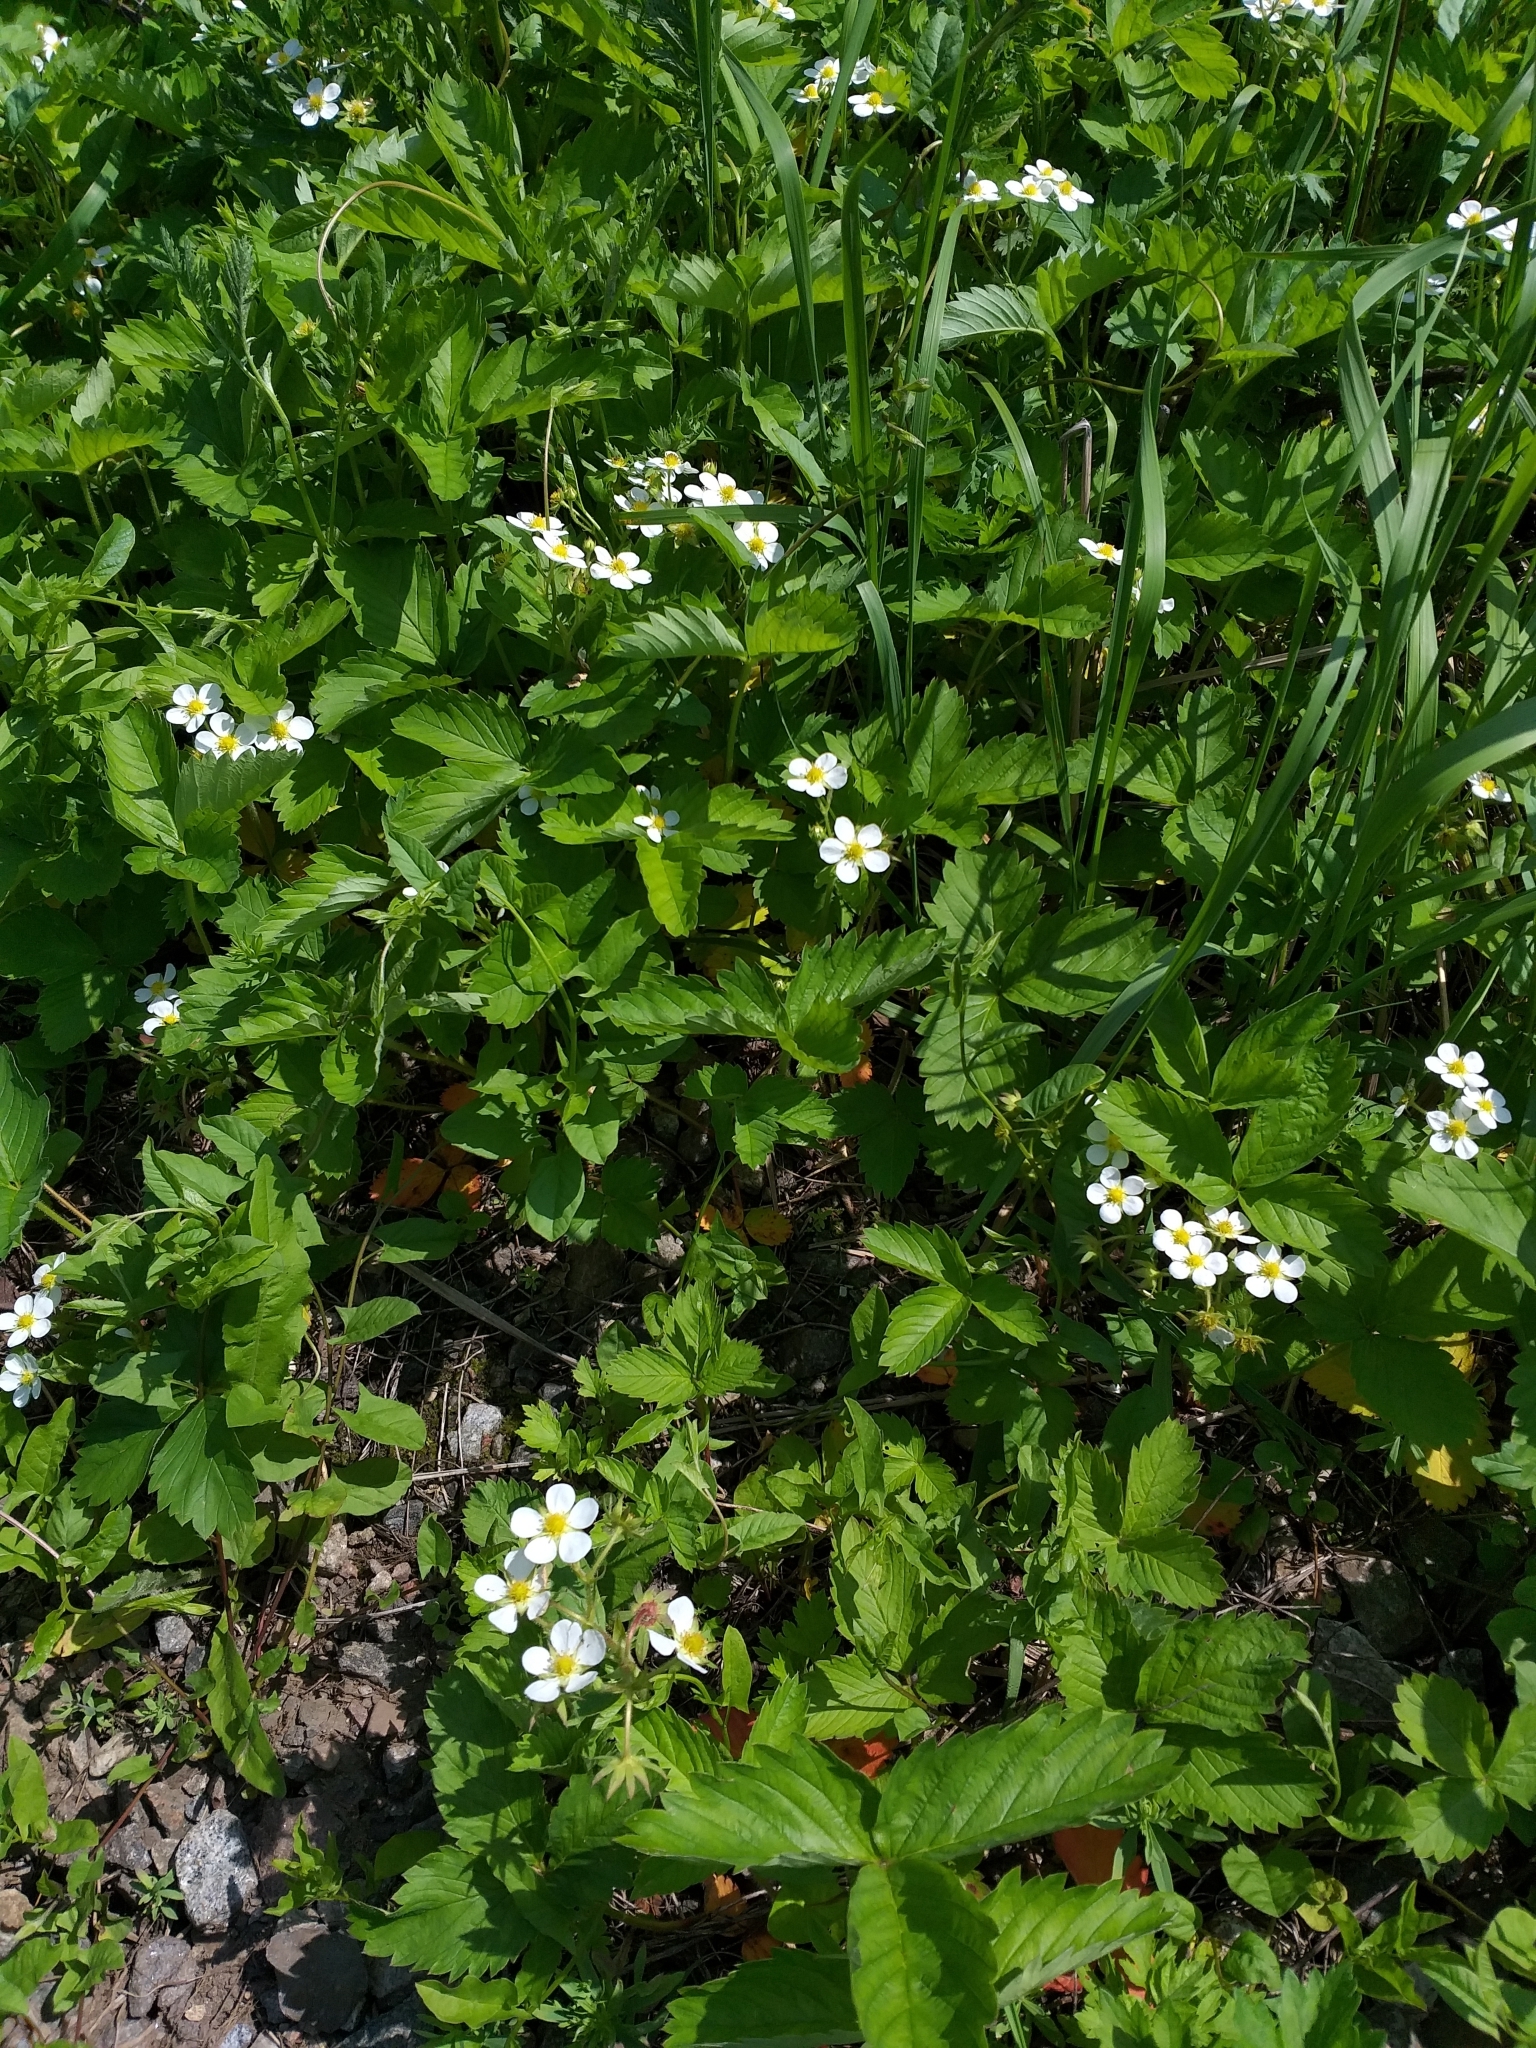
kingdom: Plantae
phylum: Tracheophyta
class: Magnoliopsida
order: Rosales
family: Rosaceae
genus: Fragaria
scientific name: Fragaria ananassa
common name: Garden strawberry
